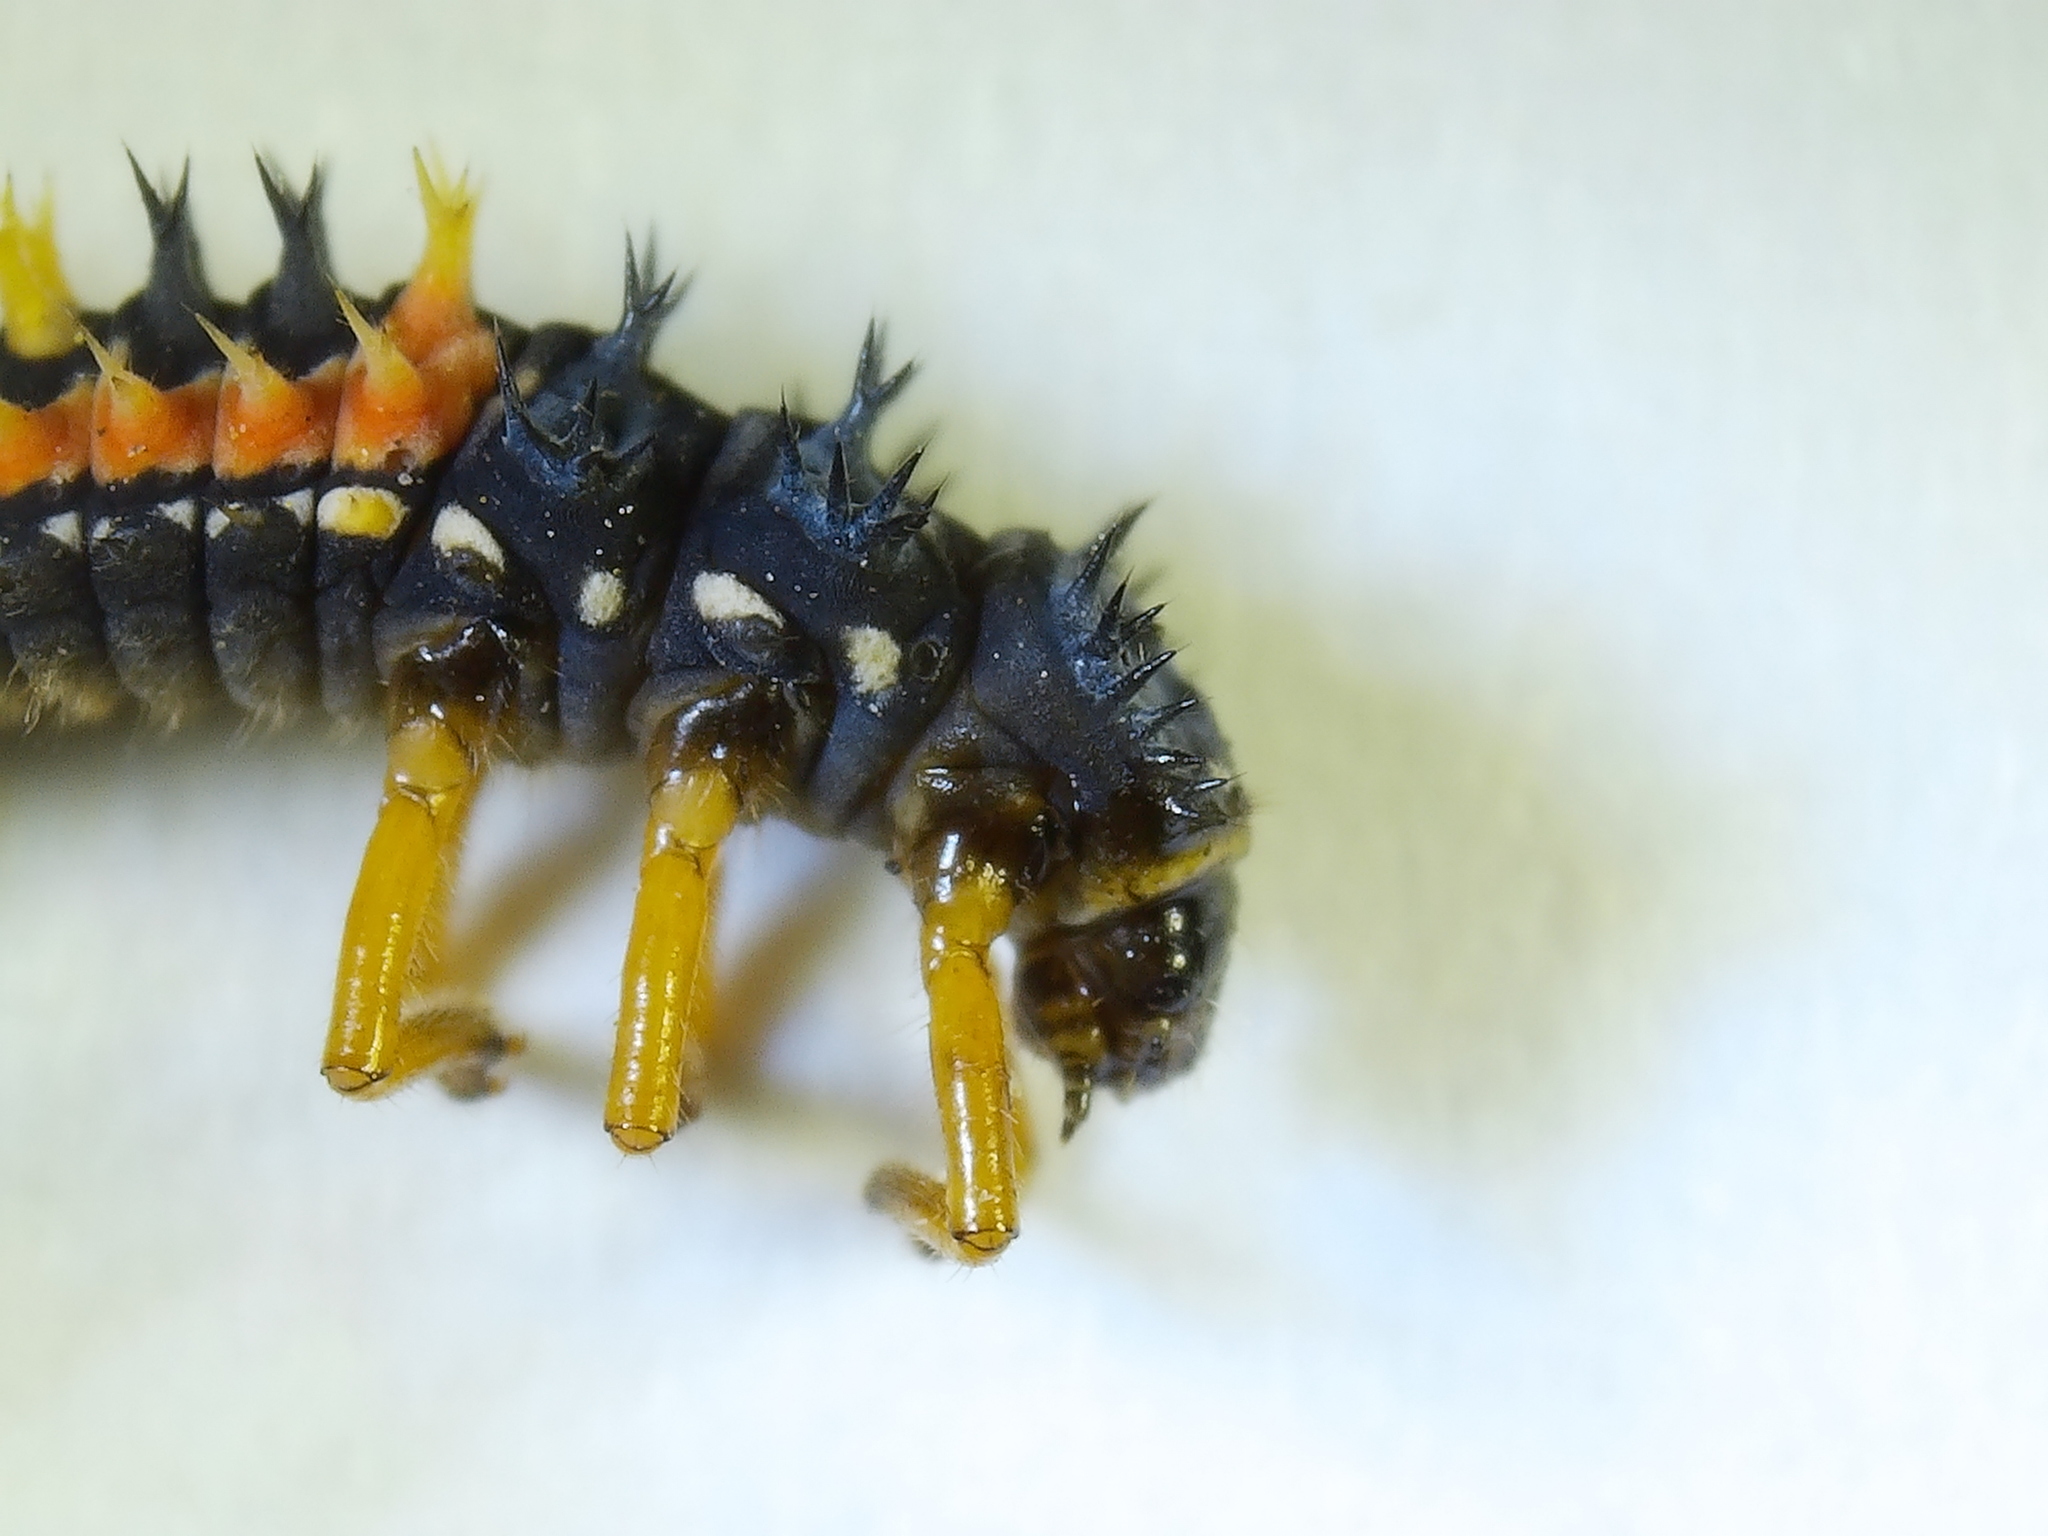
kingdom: Animalia
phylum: Arthropoda
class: Insecta
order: Coleoptera
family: Coccinellidae
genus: Harmonia
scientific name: Harmonia axyridis
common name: Harlequin ladybird
